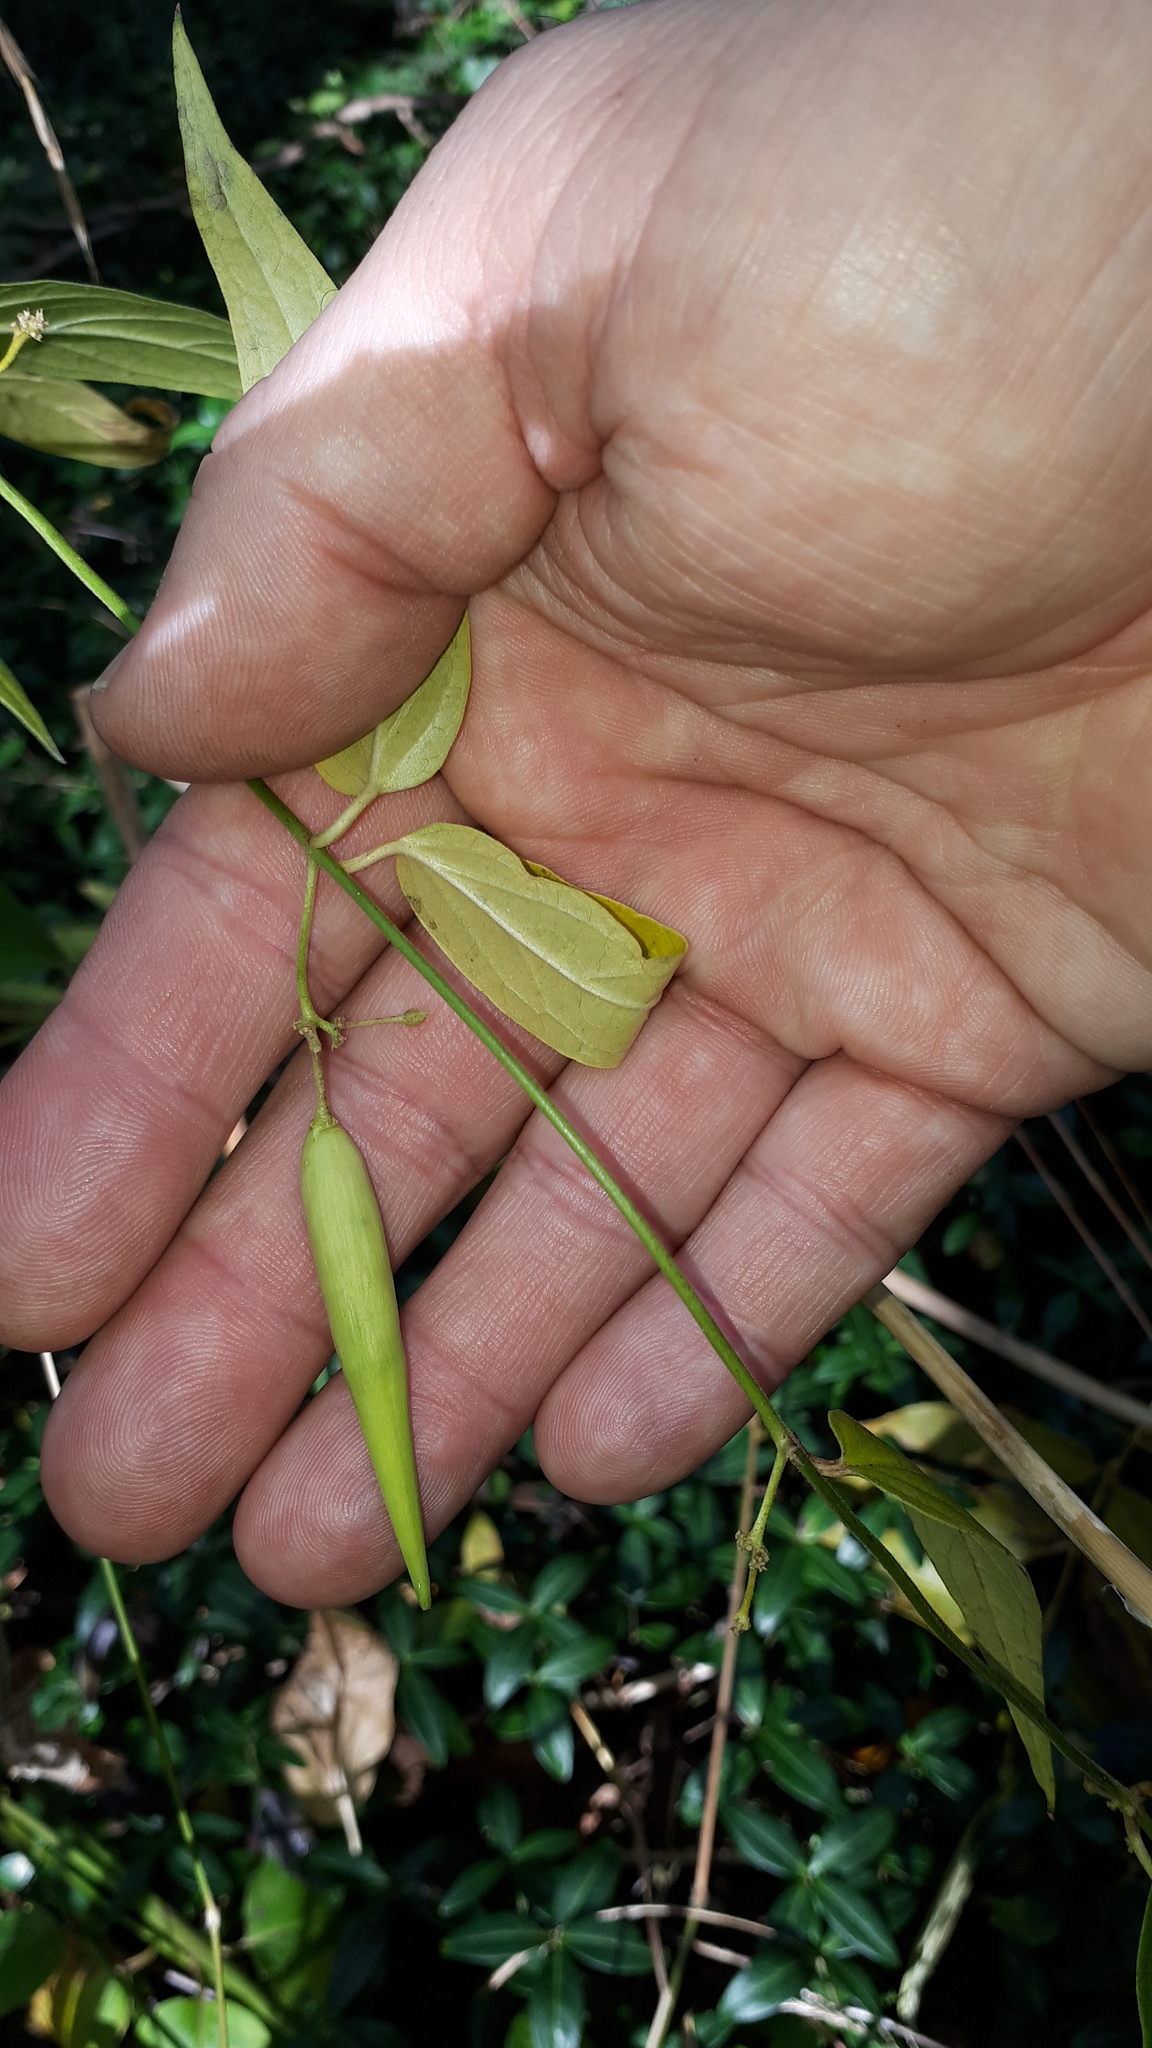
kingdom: Plantae
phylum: Tracheophyta
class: Magnoliopsida
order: Gentianales
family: Apocynaceae
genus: Vincetoxicum
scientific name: Vincetoxicum hirundinaria
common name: White swallowwort
